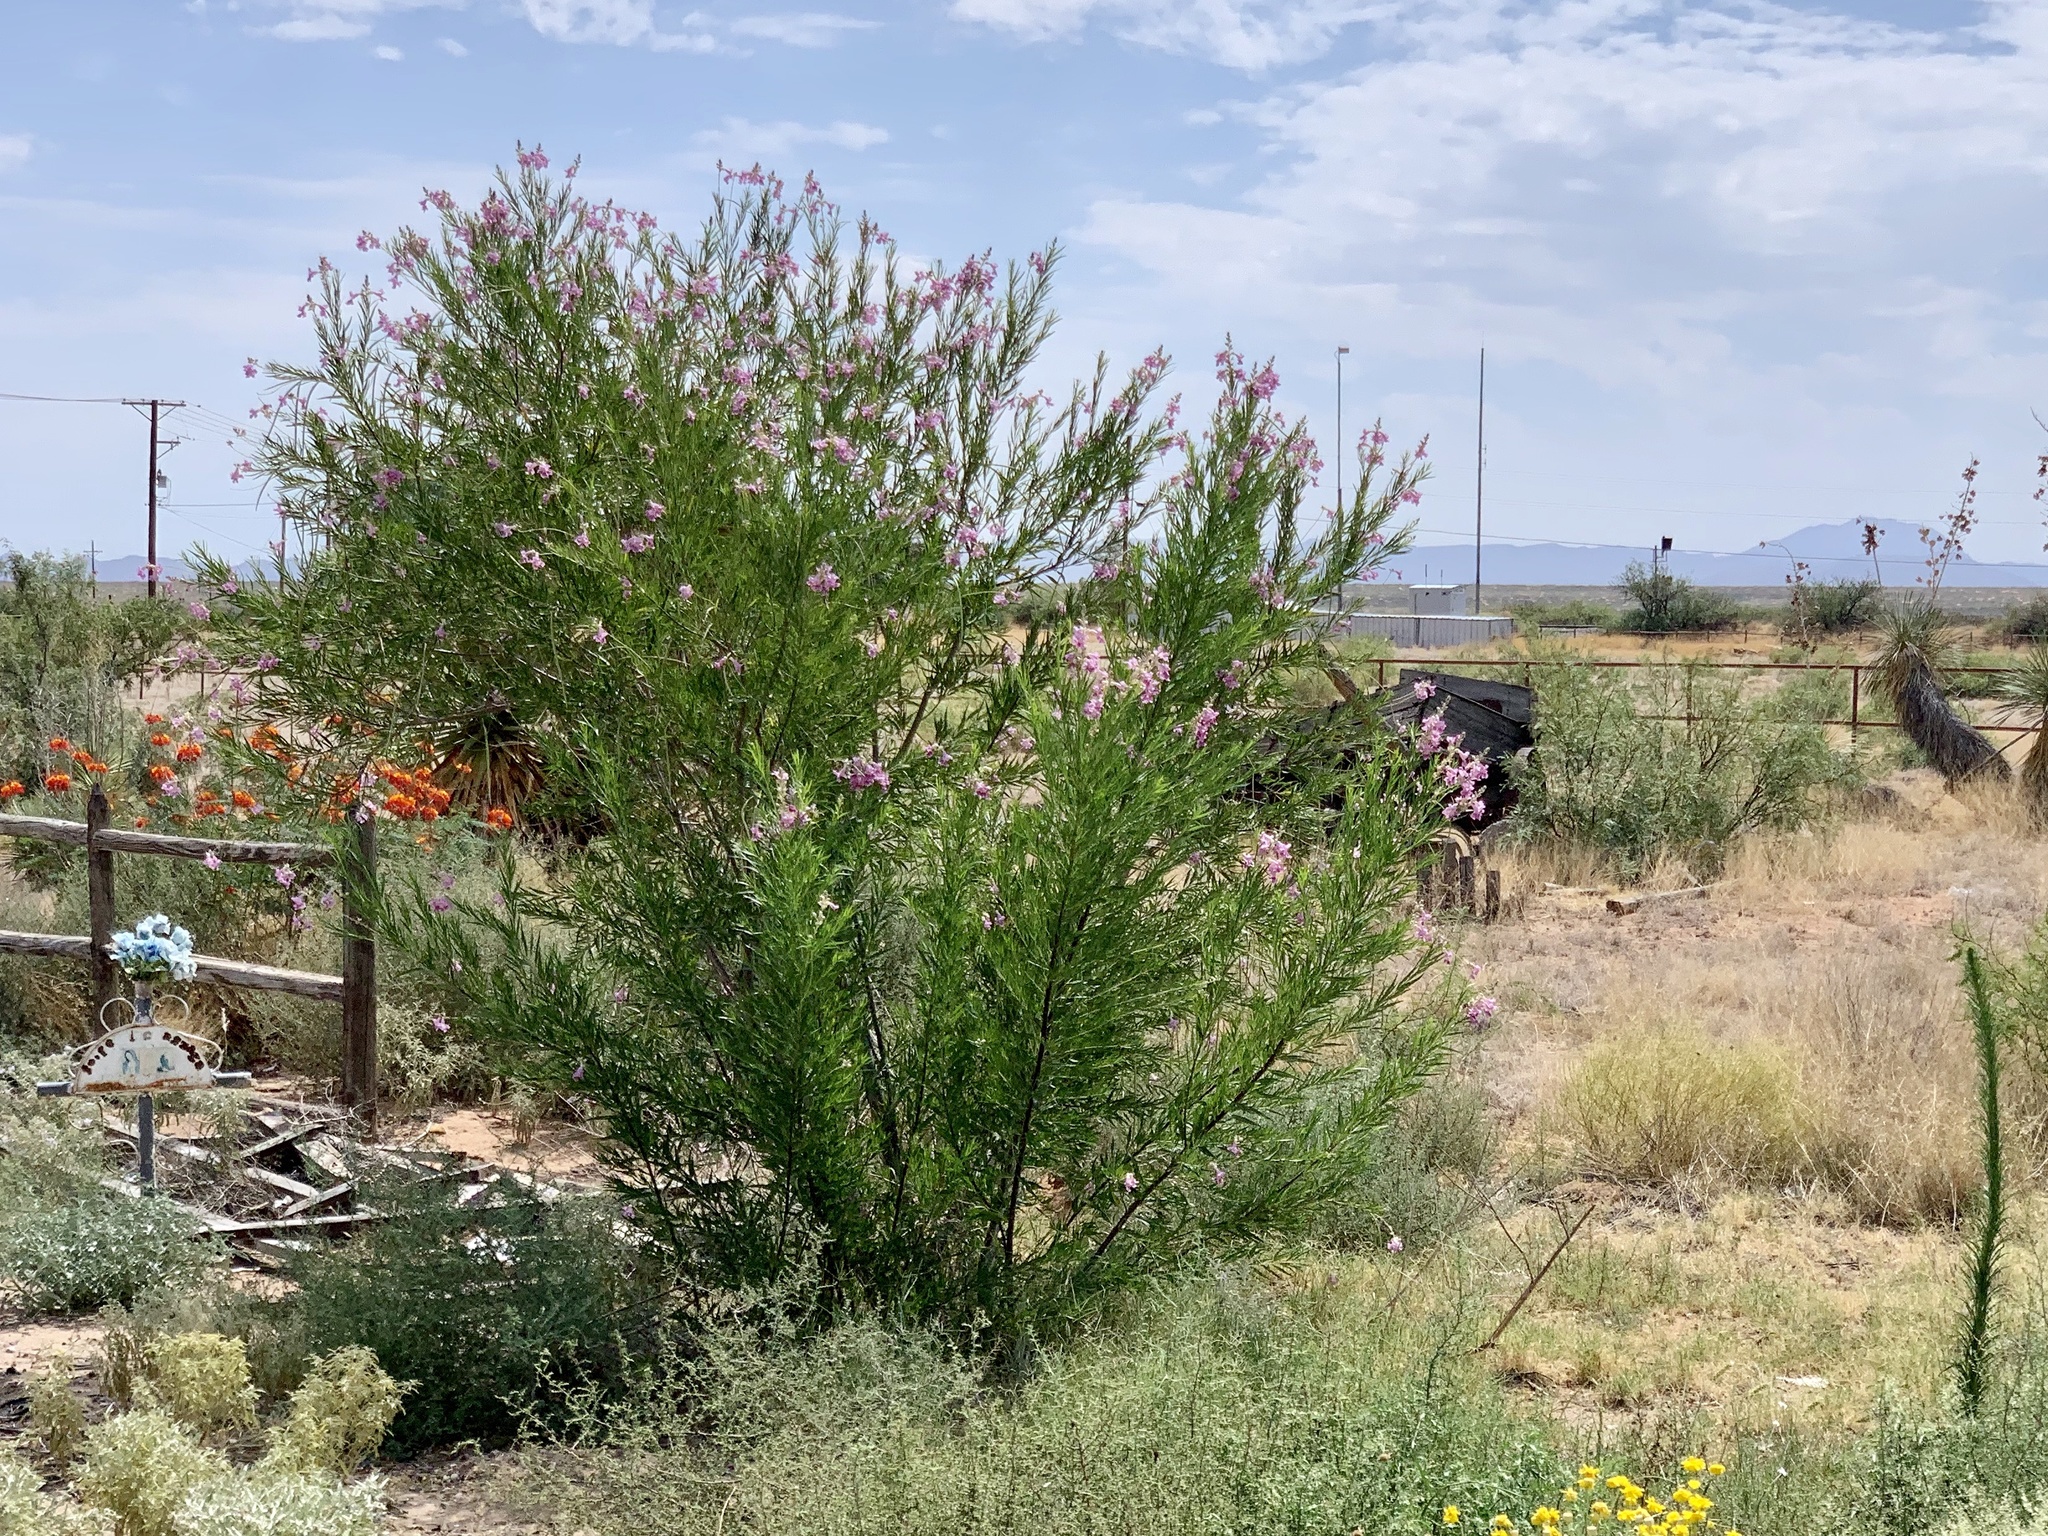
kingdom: Plantae
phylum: Tracheophyta
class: Magnoliopsida
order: Lamiales
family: Bignoniaceae
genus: Chilopsis
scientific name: Chilopsis linearis
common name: Desert-willow
